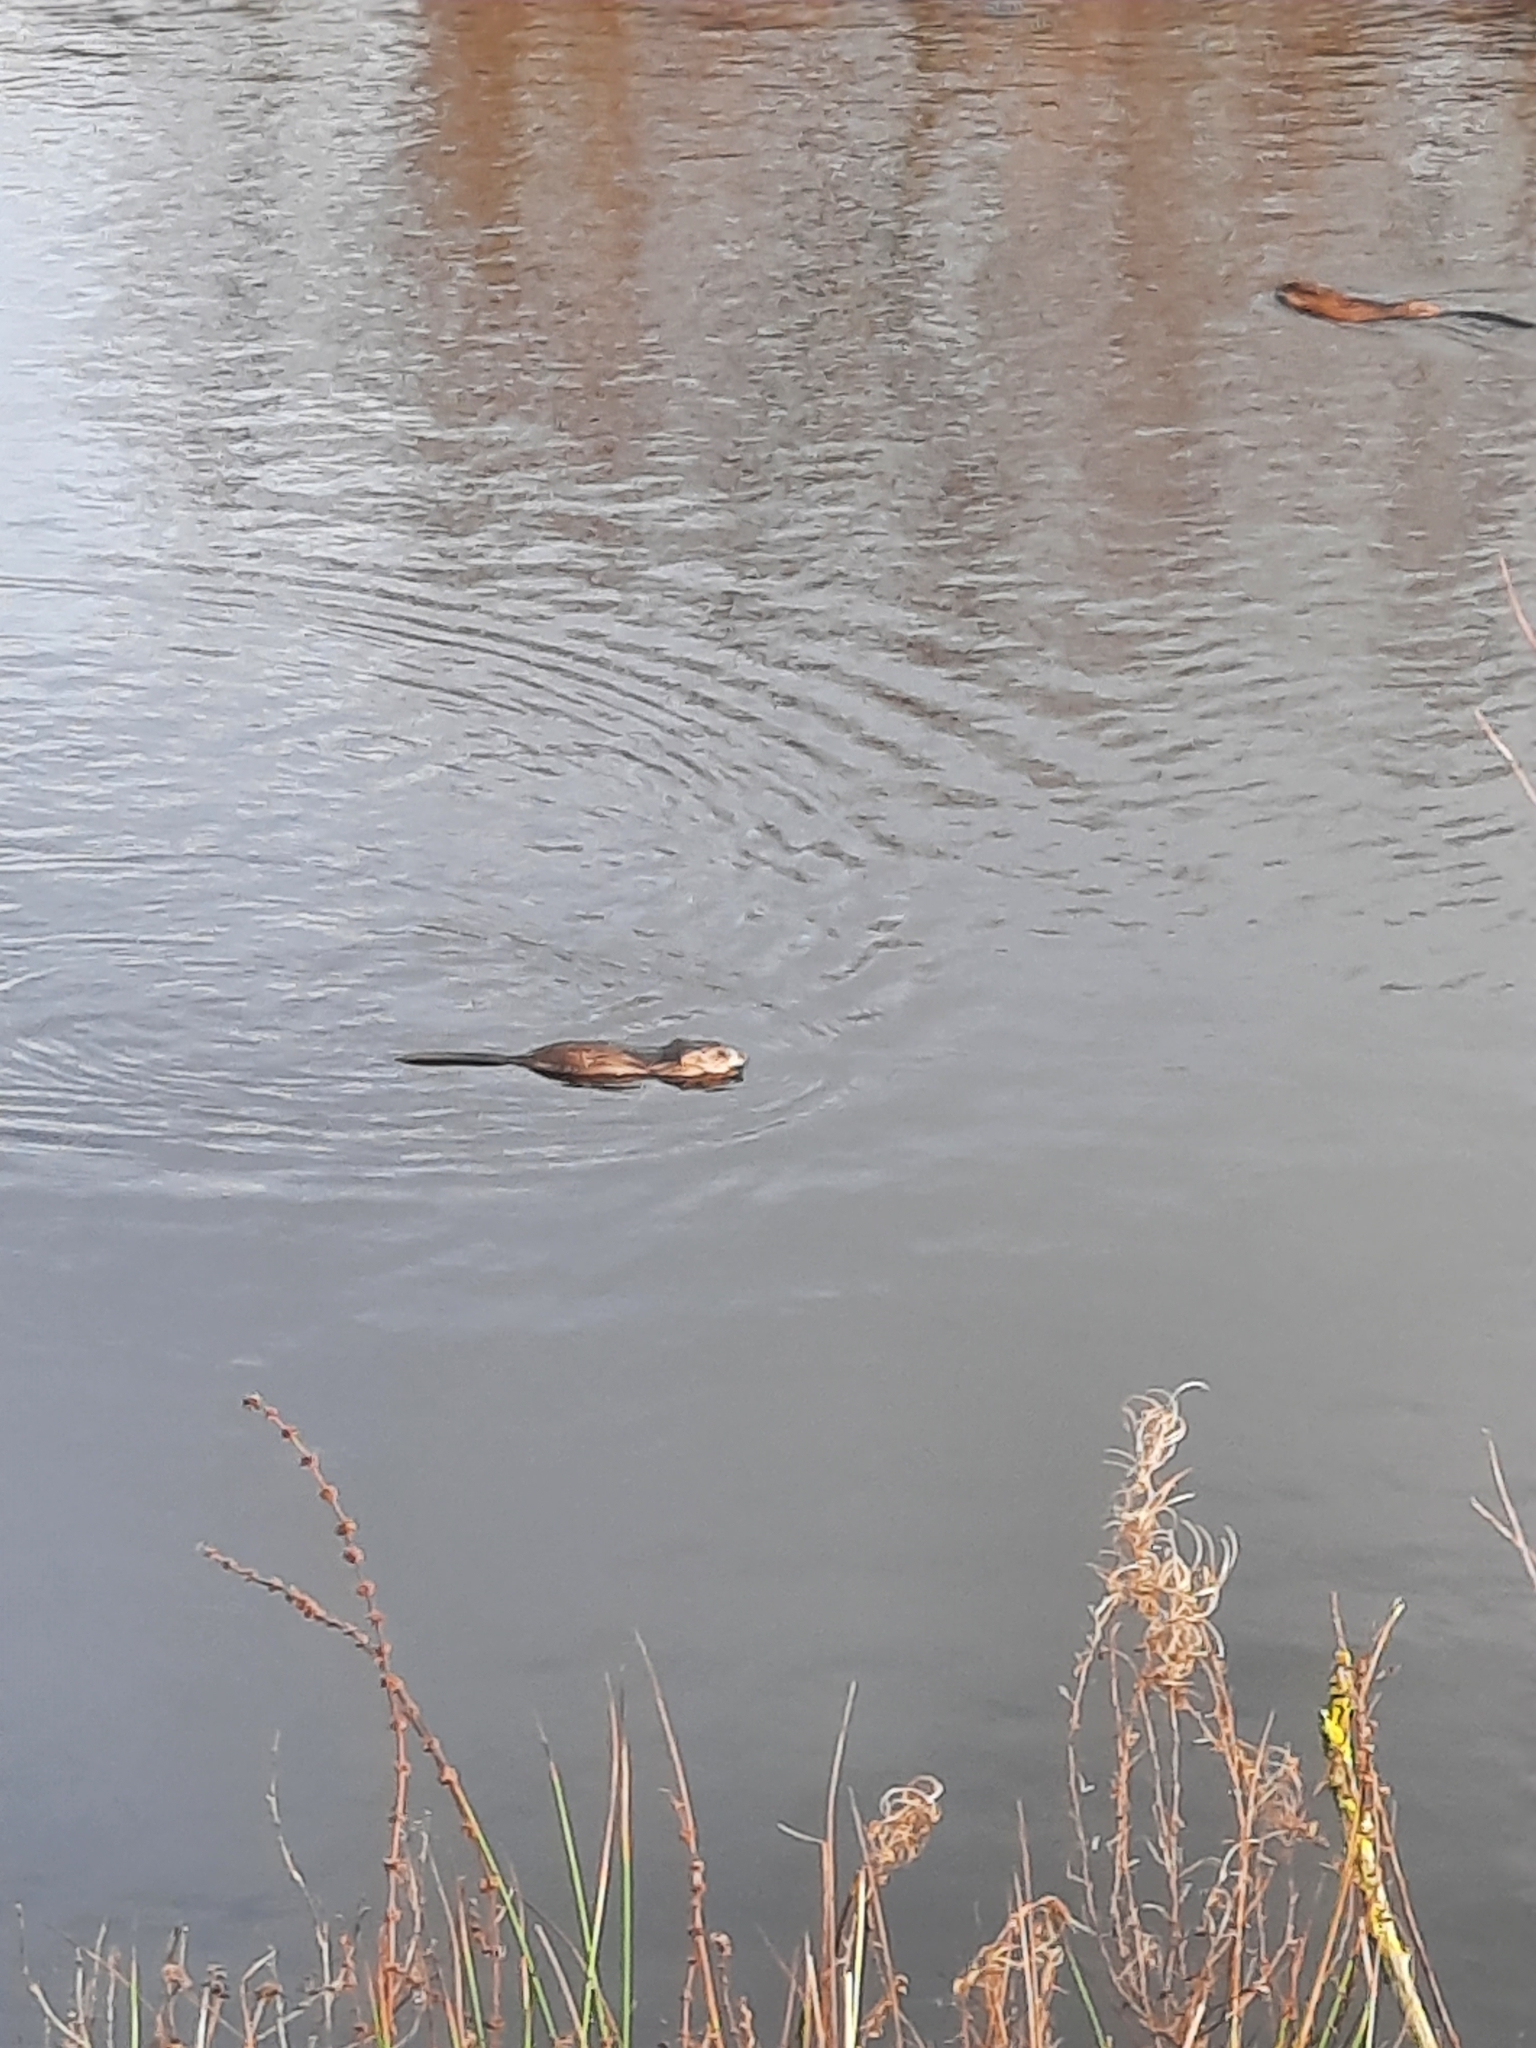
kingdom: Animalia
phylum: Chordata
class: Mammalia
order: Rodentia
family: Cricetidae
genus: Ondatra
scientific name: Ondatra zibethicus
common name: Muskrat
